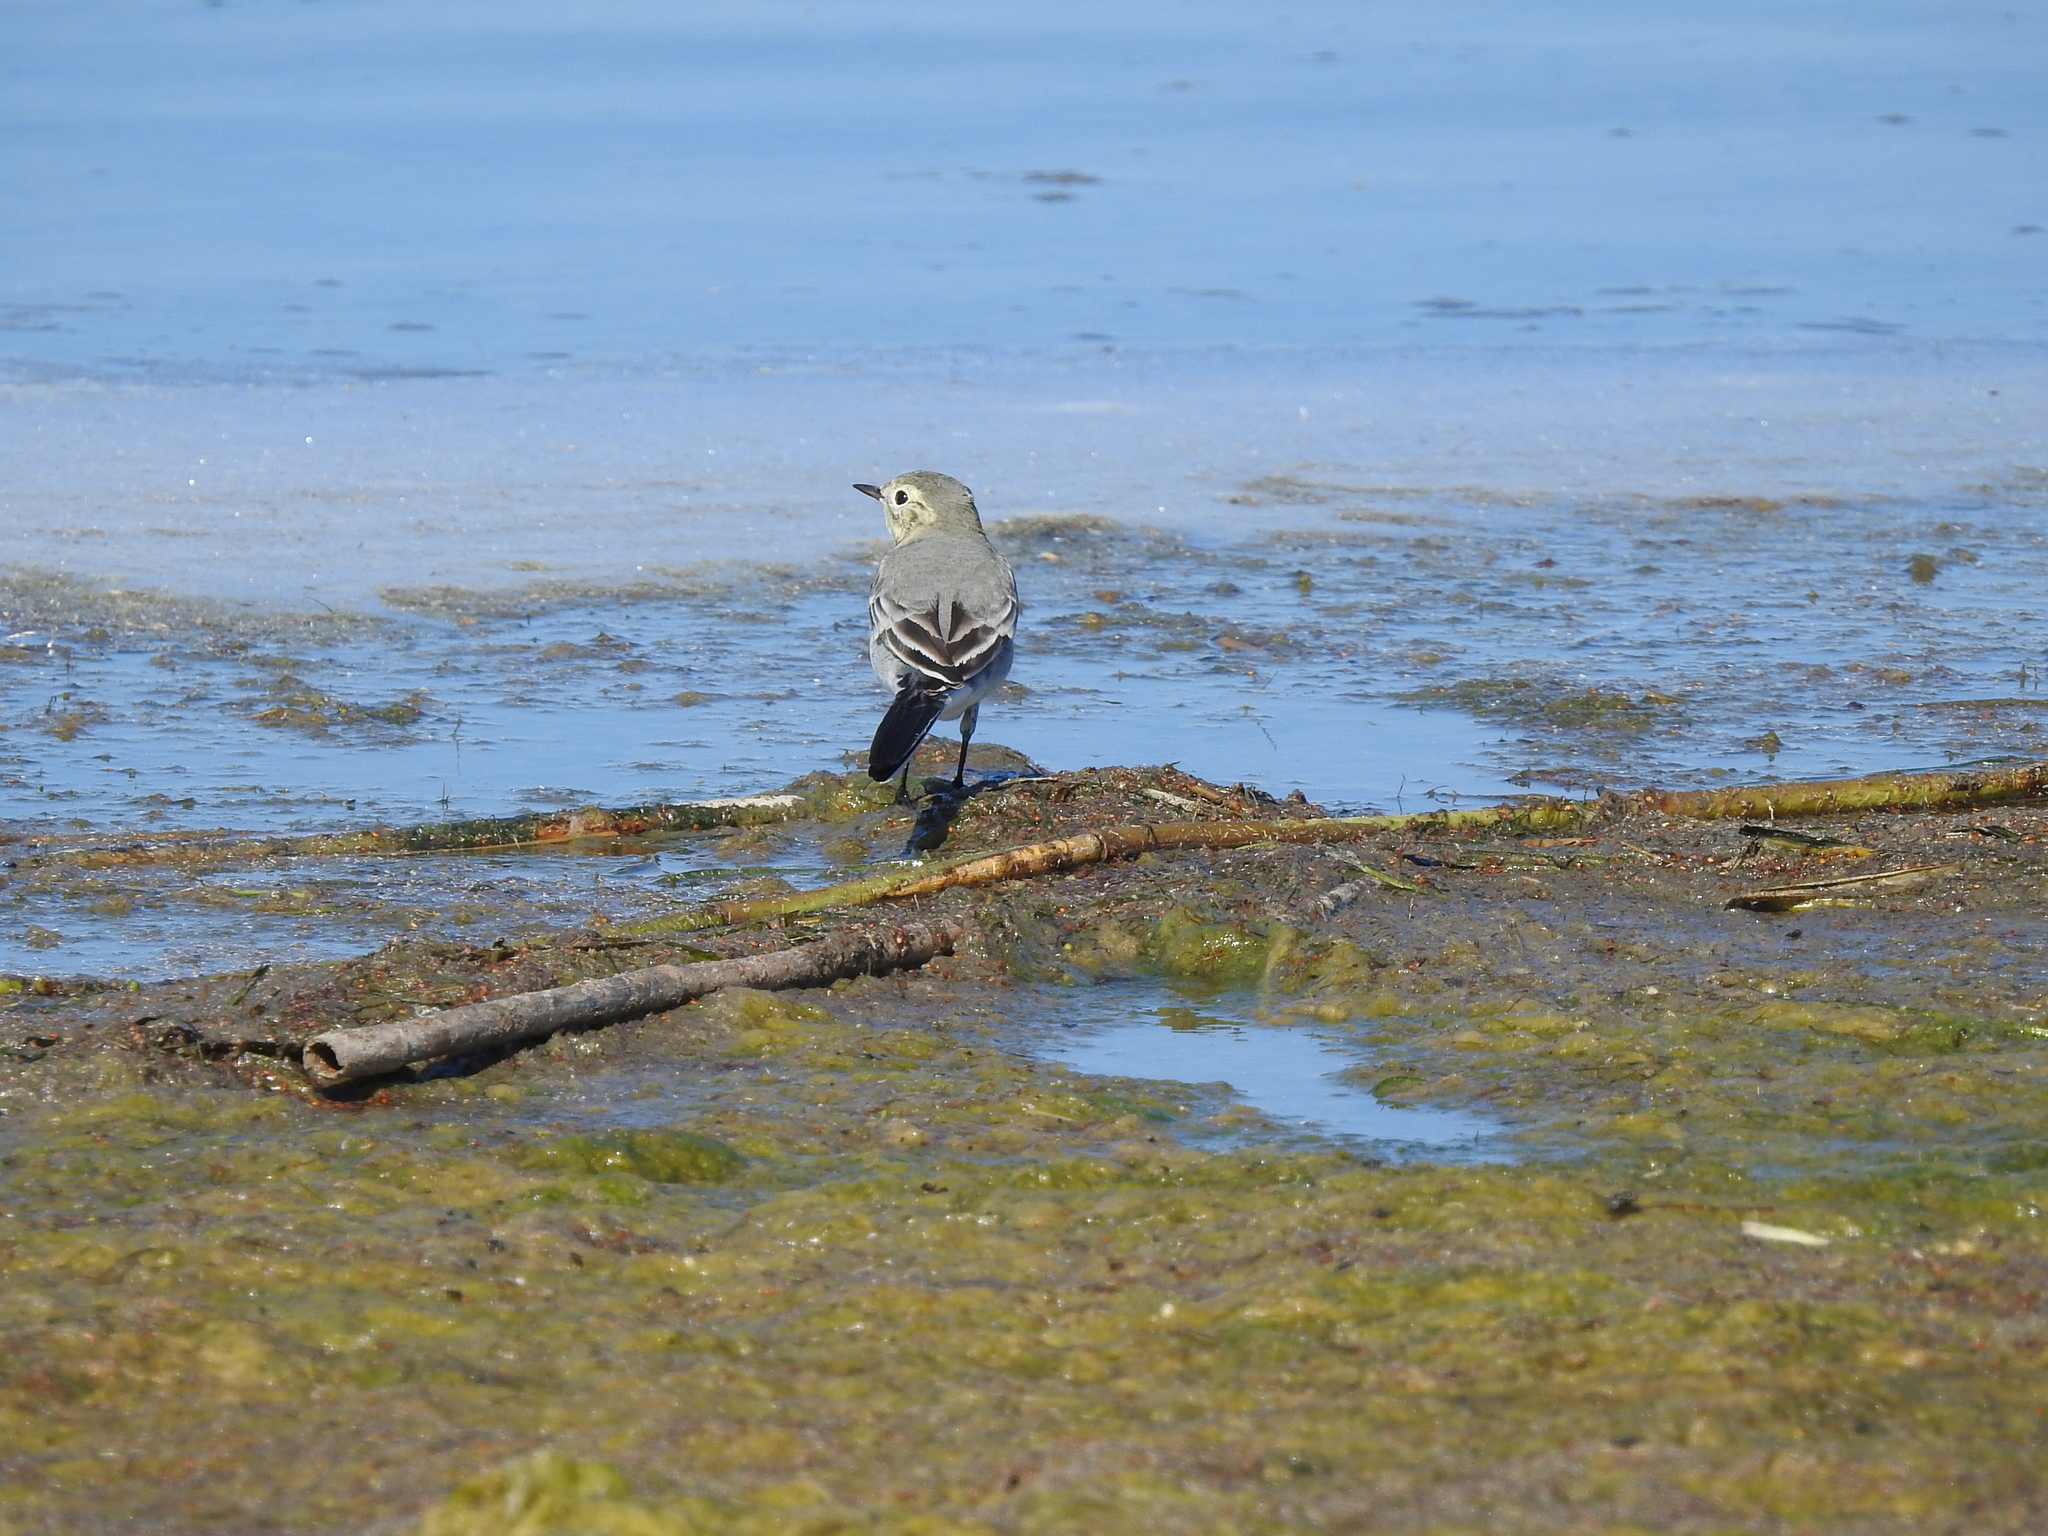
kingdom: Animalia
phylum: Chordata
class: Aves
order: Passeriformes
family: Motacillidae
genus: Motacilla
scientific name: Motacilla alba
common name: White wagtail
